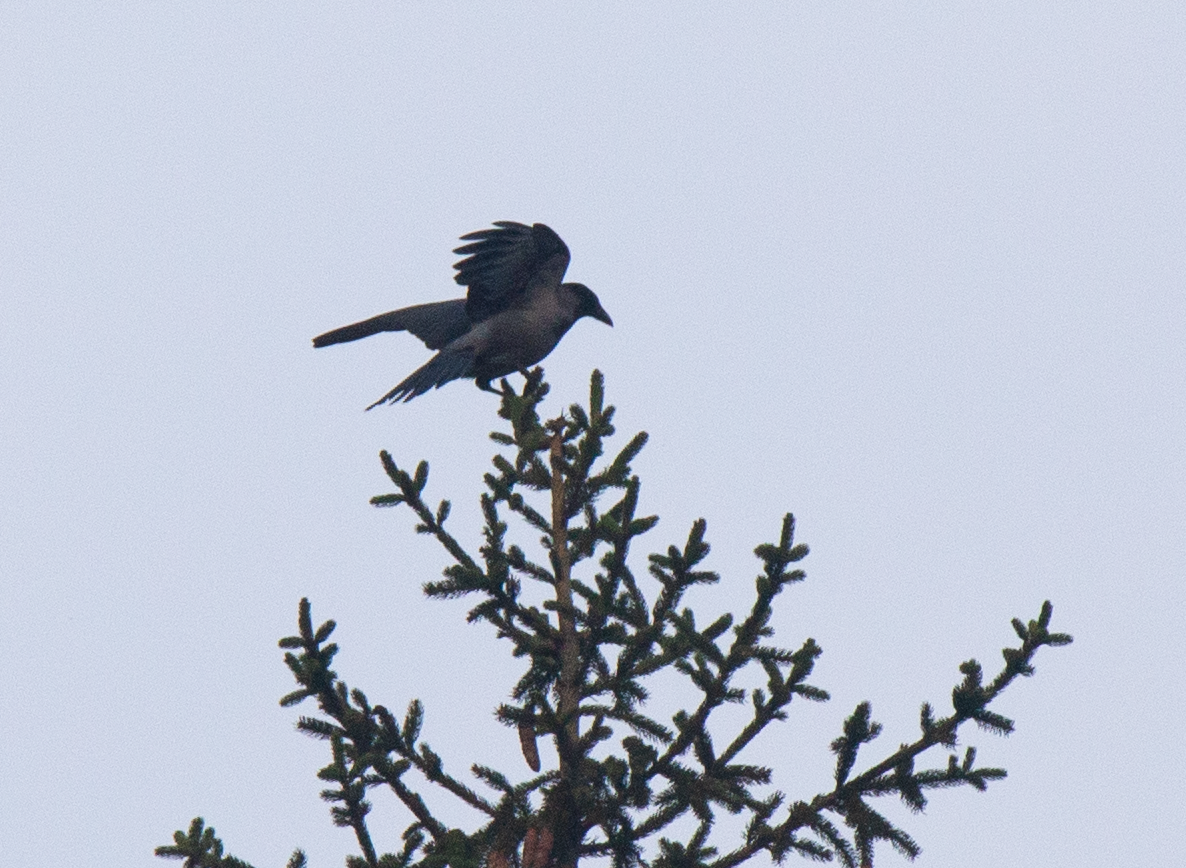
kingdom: Animalia
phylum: Chordata
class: Aves
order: Passeriformes
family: Corvidae
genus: Corvus
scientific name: Corvus cornix
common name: Hooded crow
